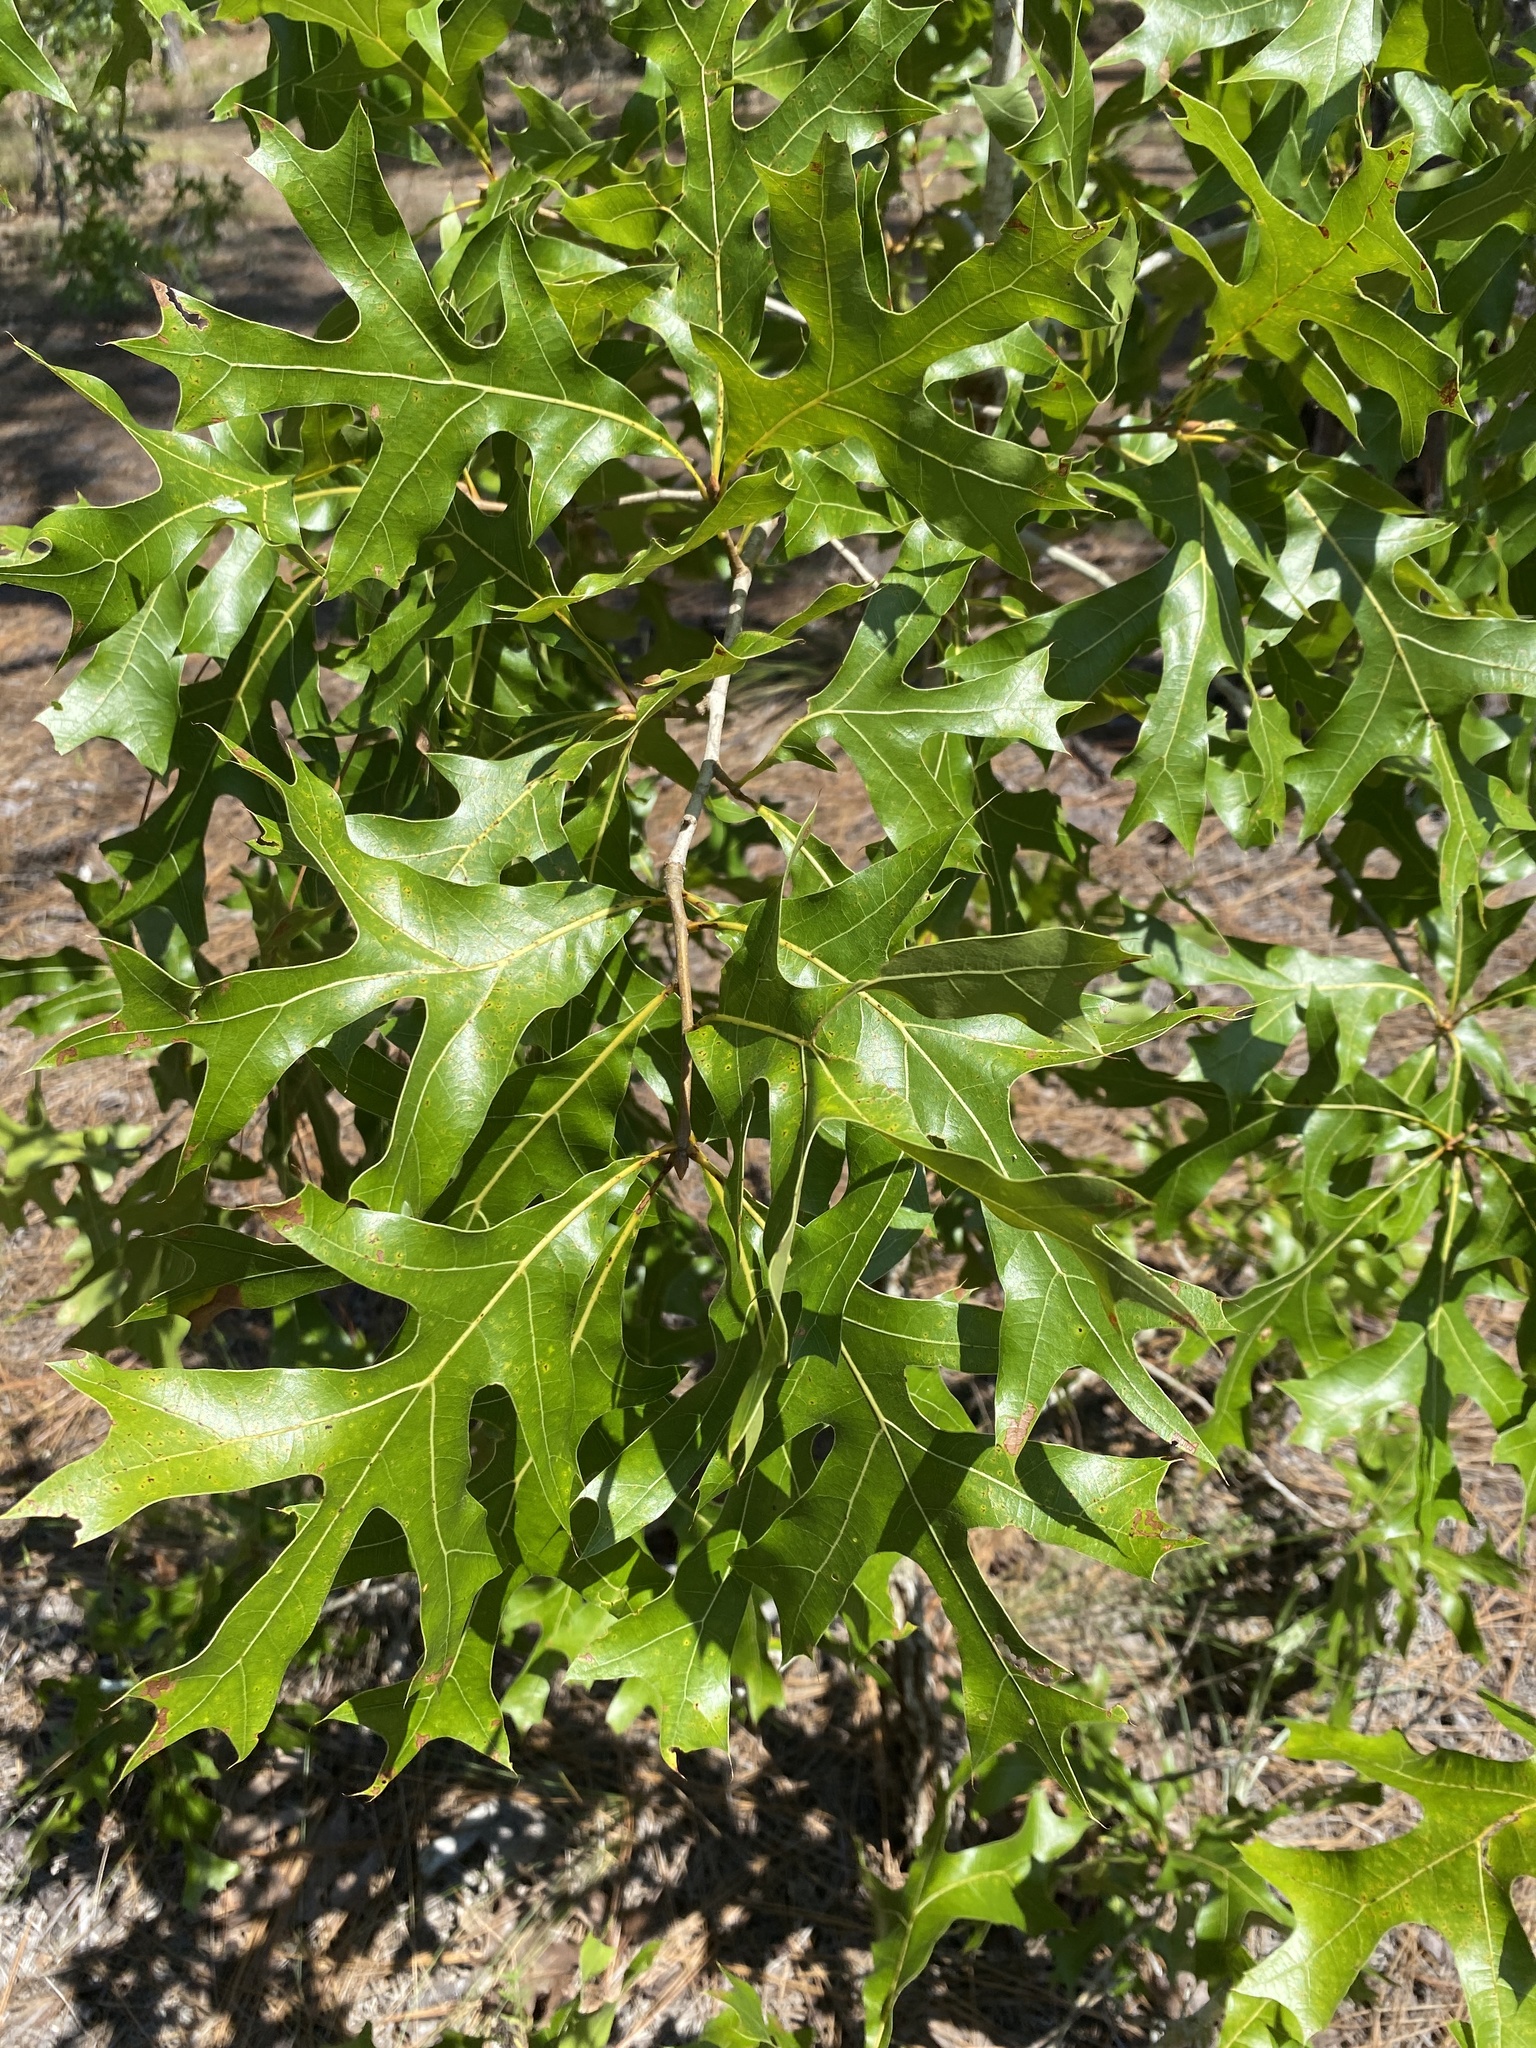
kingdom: Plantae
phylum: Tracheophyta
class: Magnoliopsida
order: Fagales
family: Fagaceae
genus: Quercus
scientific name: Quercus laevis
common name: Turkey oak
